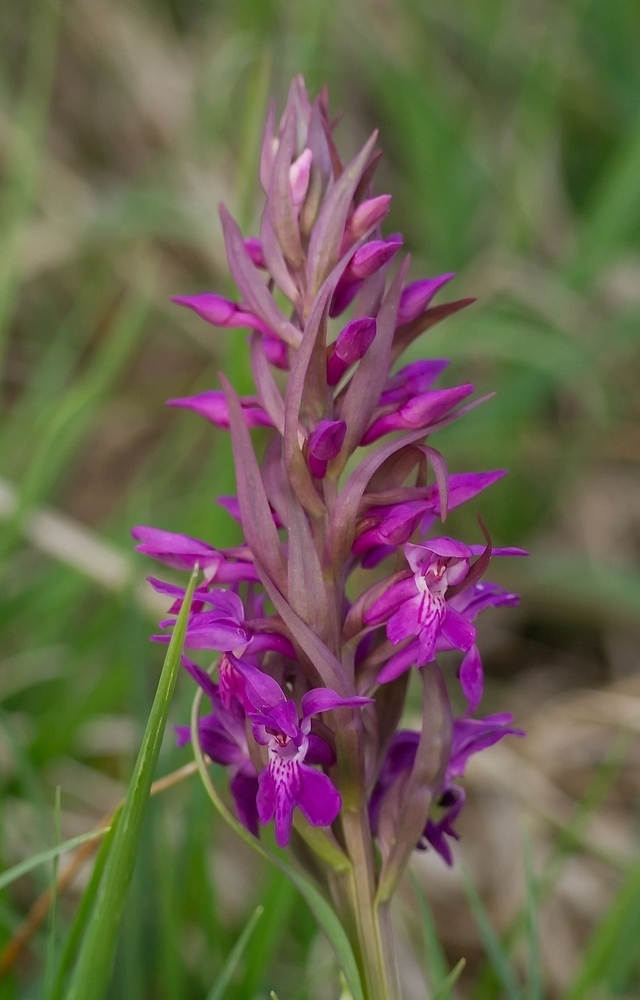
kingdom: Plantae
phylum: Tracheophyta
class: Liliopsida
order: Asparagales
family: Orchidaceae
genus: Dactylorhiza
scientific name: Dactylorhiza majalis
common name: Marsh orchid
